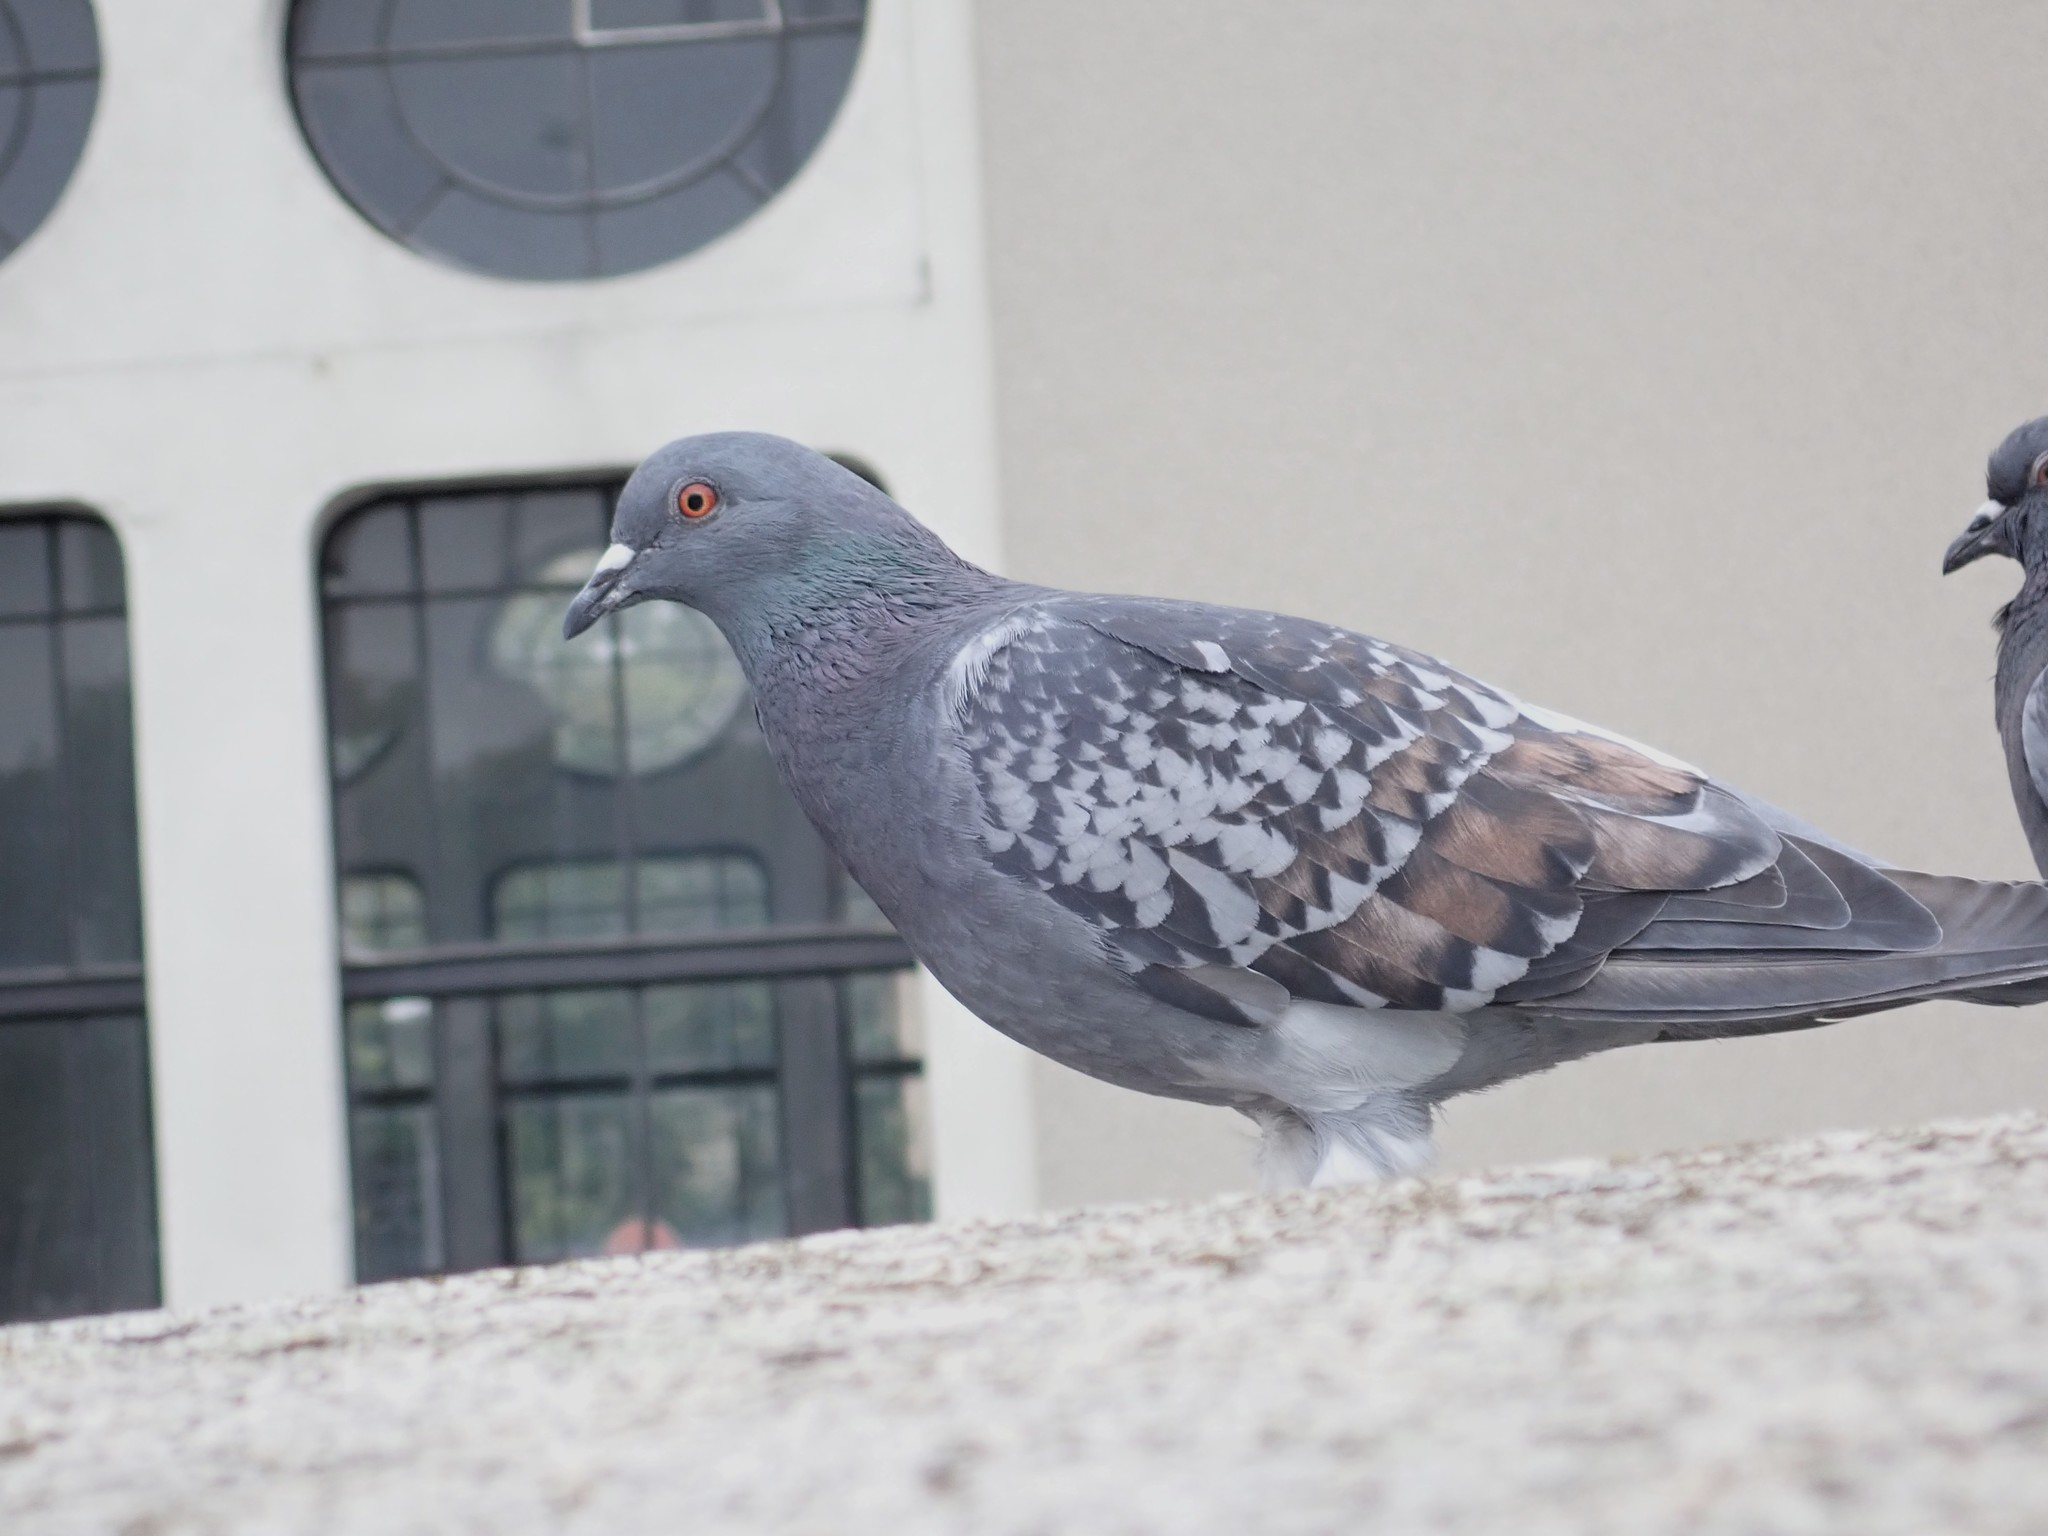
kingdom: Animalia
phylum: Chordata
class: Aves
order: Columbiformes
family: Columbidae
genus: Columba
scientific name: Columba livia
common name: Rock pigeon
